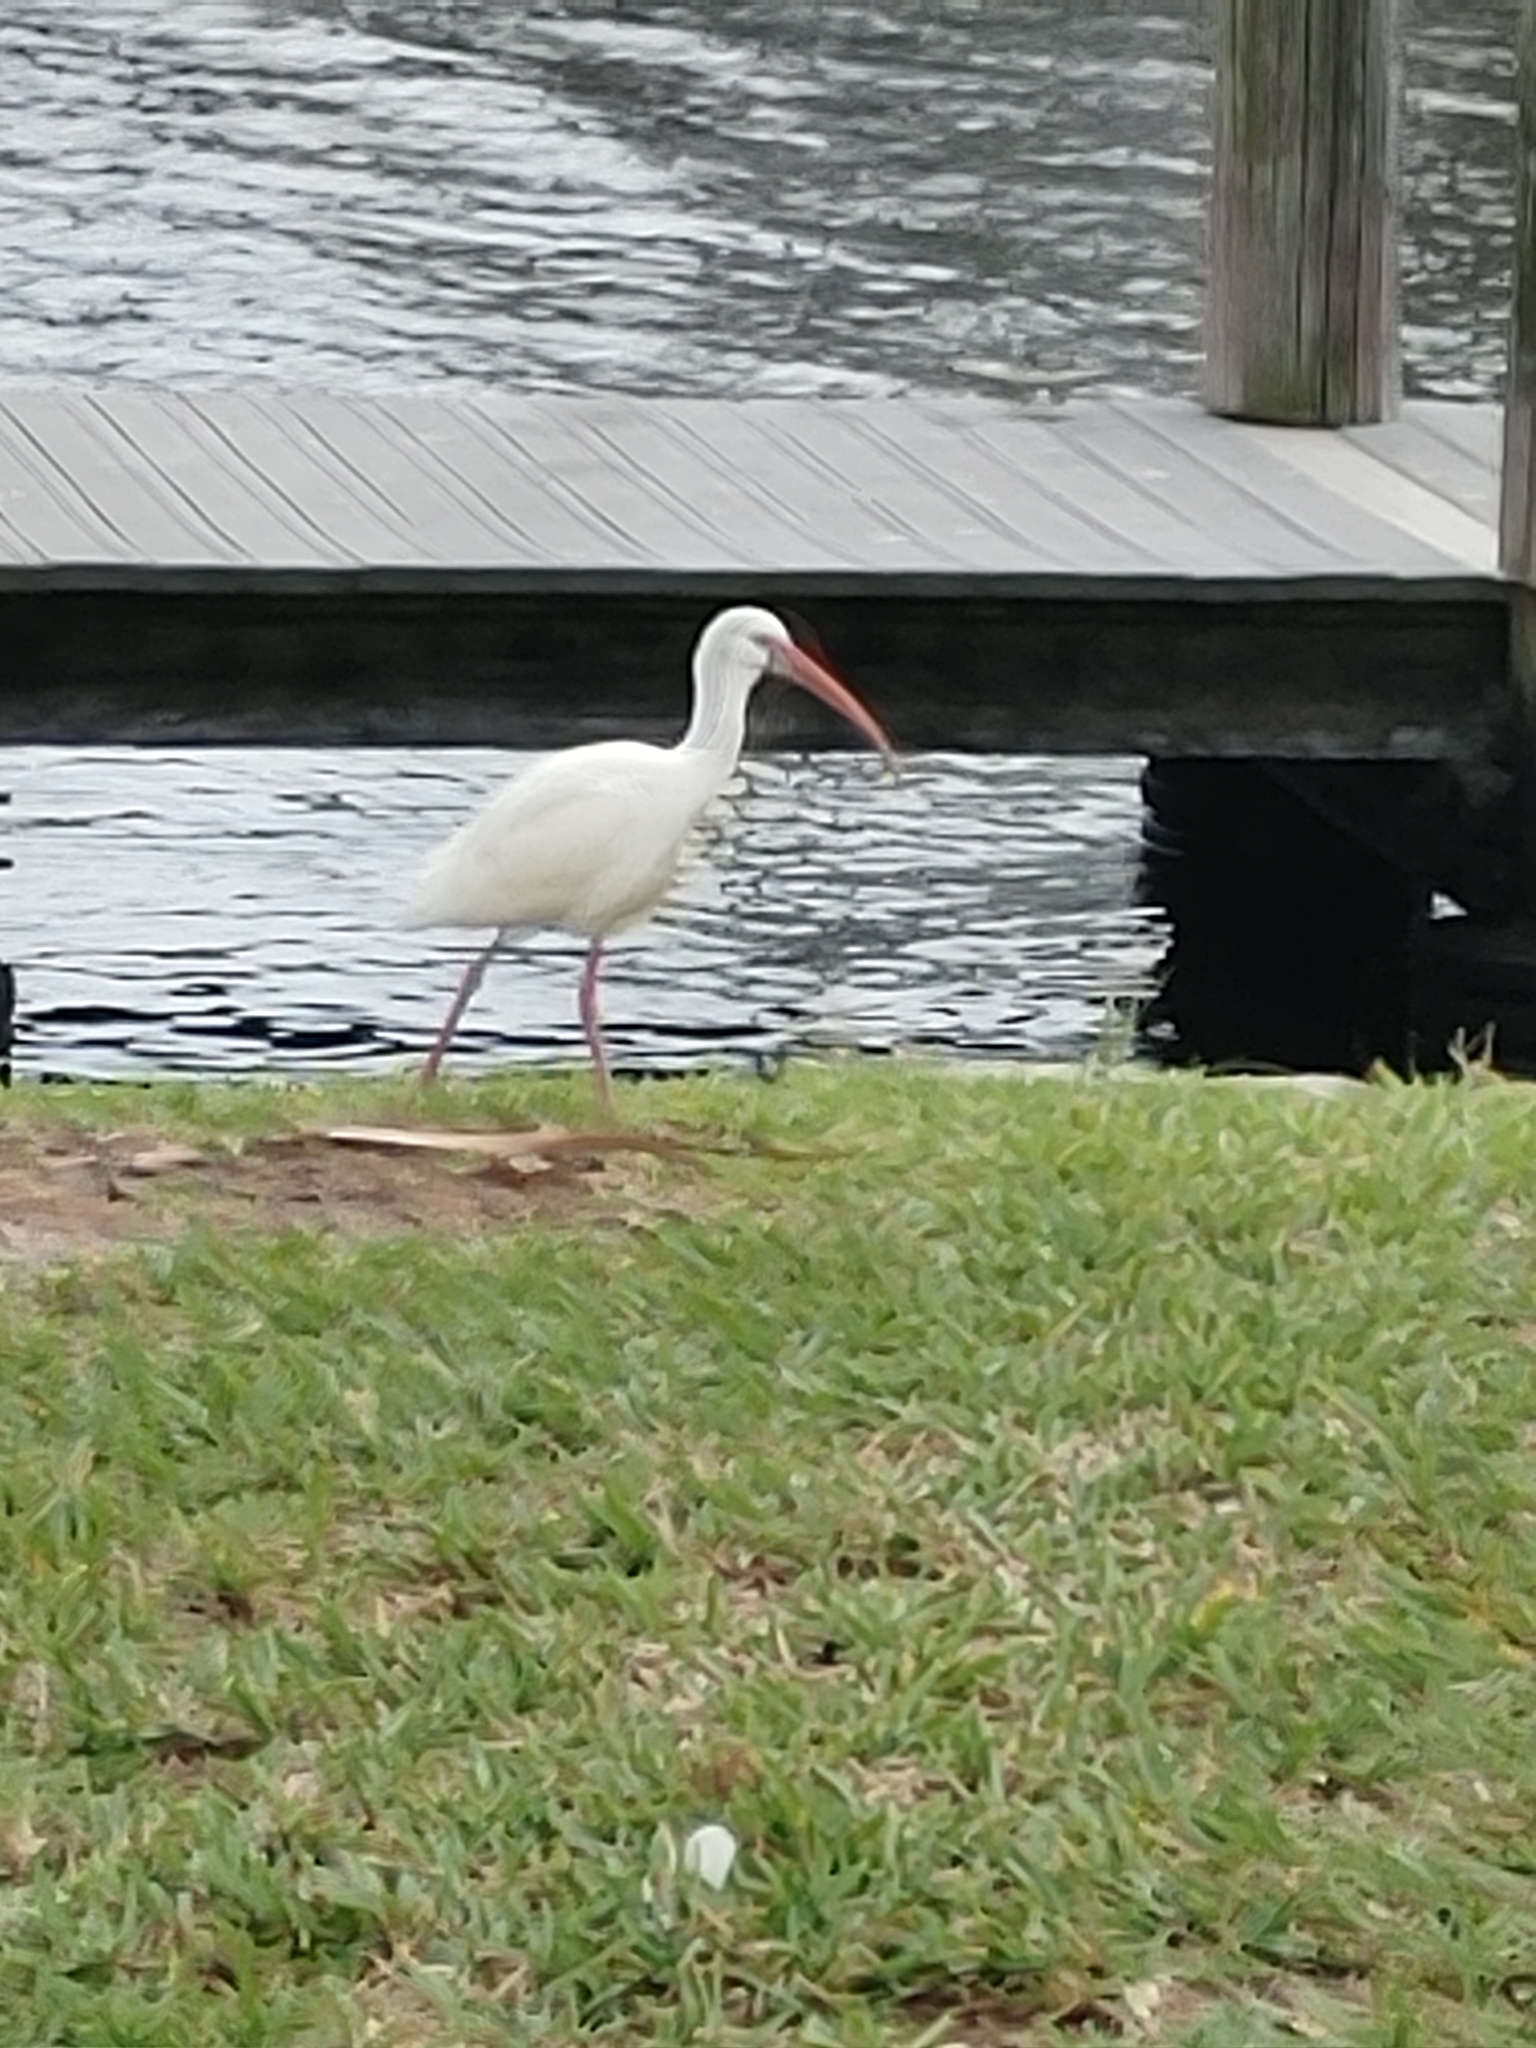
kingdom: Animalia
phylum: Chordata
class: Aves
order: Pelecaniformes
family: Threskiornithidae
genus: Eudocimus
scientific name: Eudocimus albus
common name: White ibis
